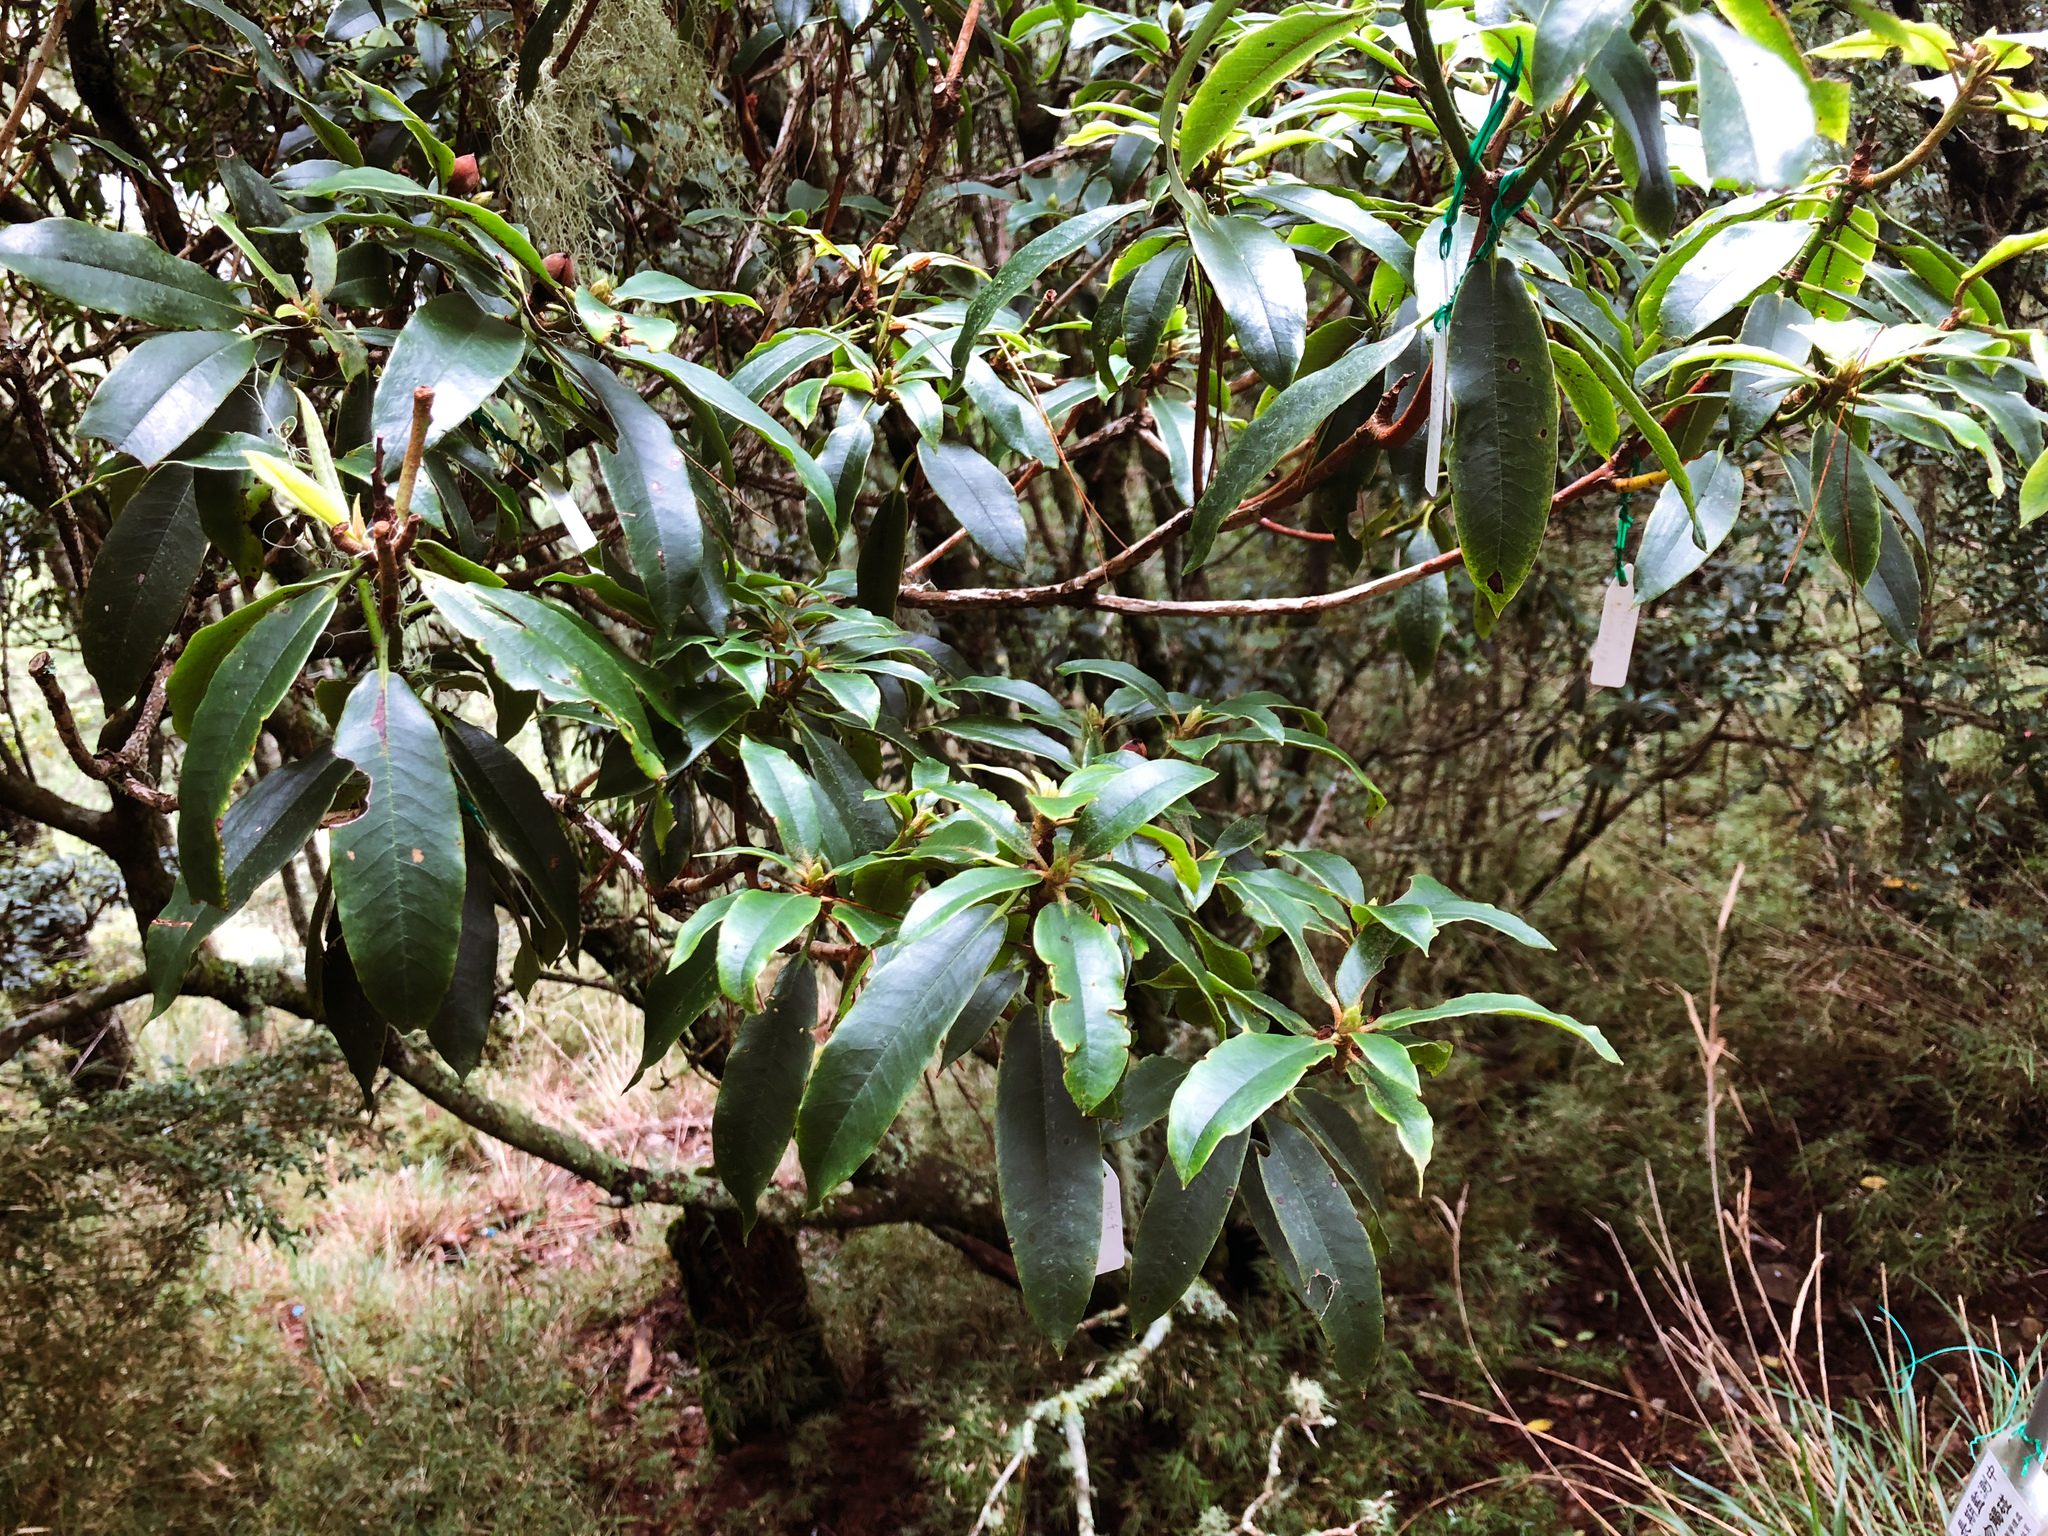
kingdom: Plantae
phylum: Tracheophyta
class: Magnoliopsida
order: Ericales
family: Ericaceae
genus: Rhododendron
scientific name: Rhododendron pseudochrysanthum
